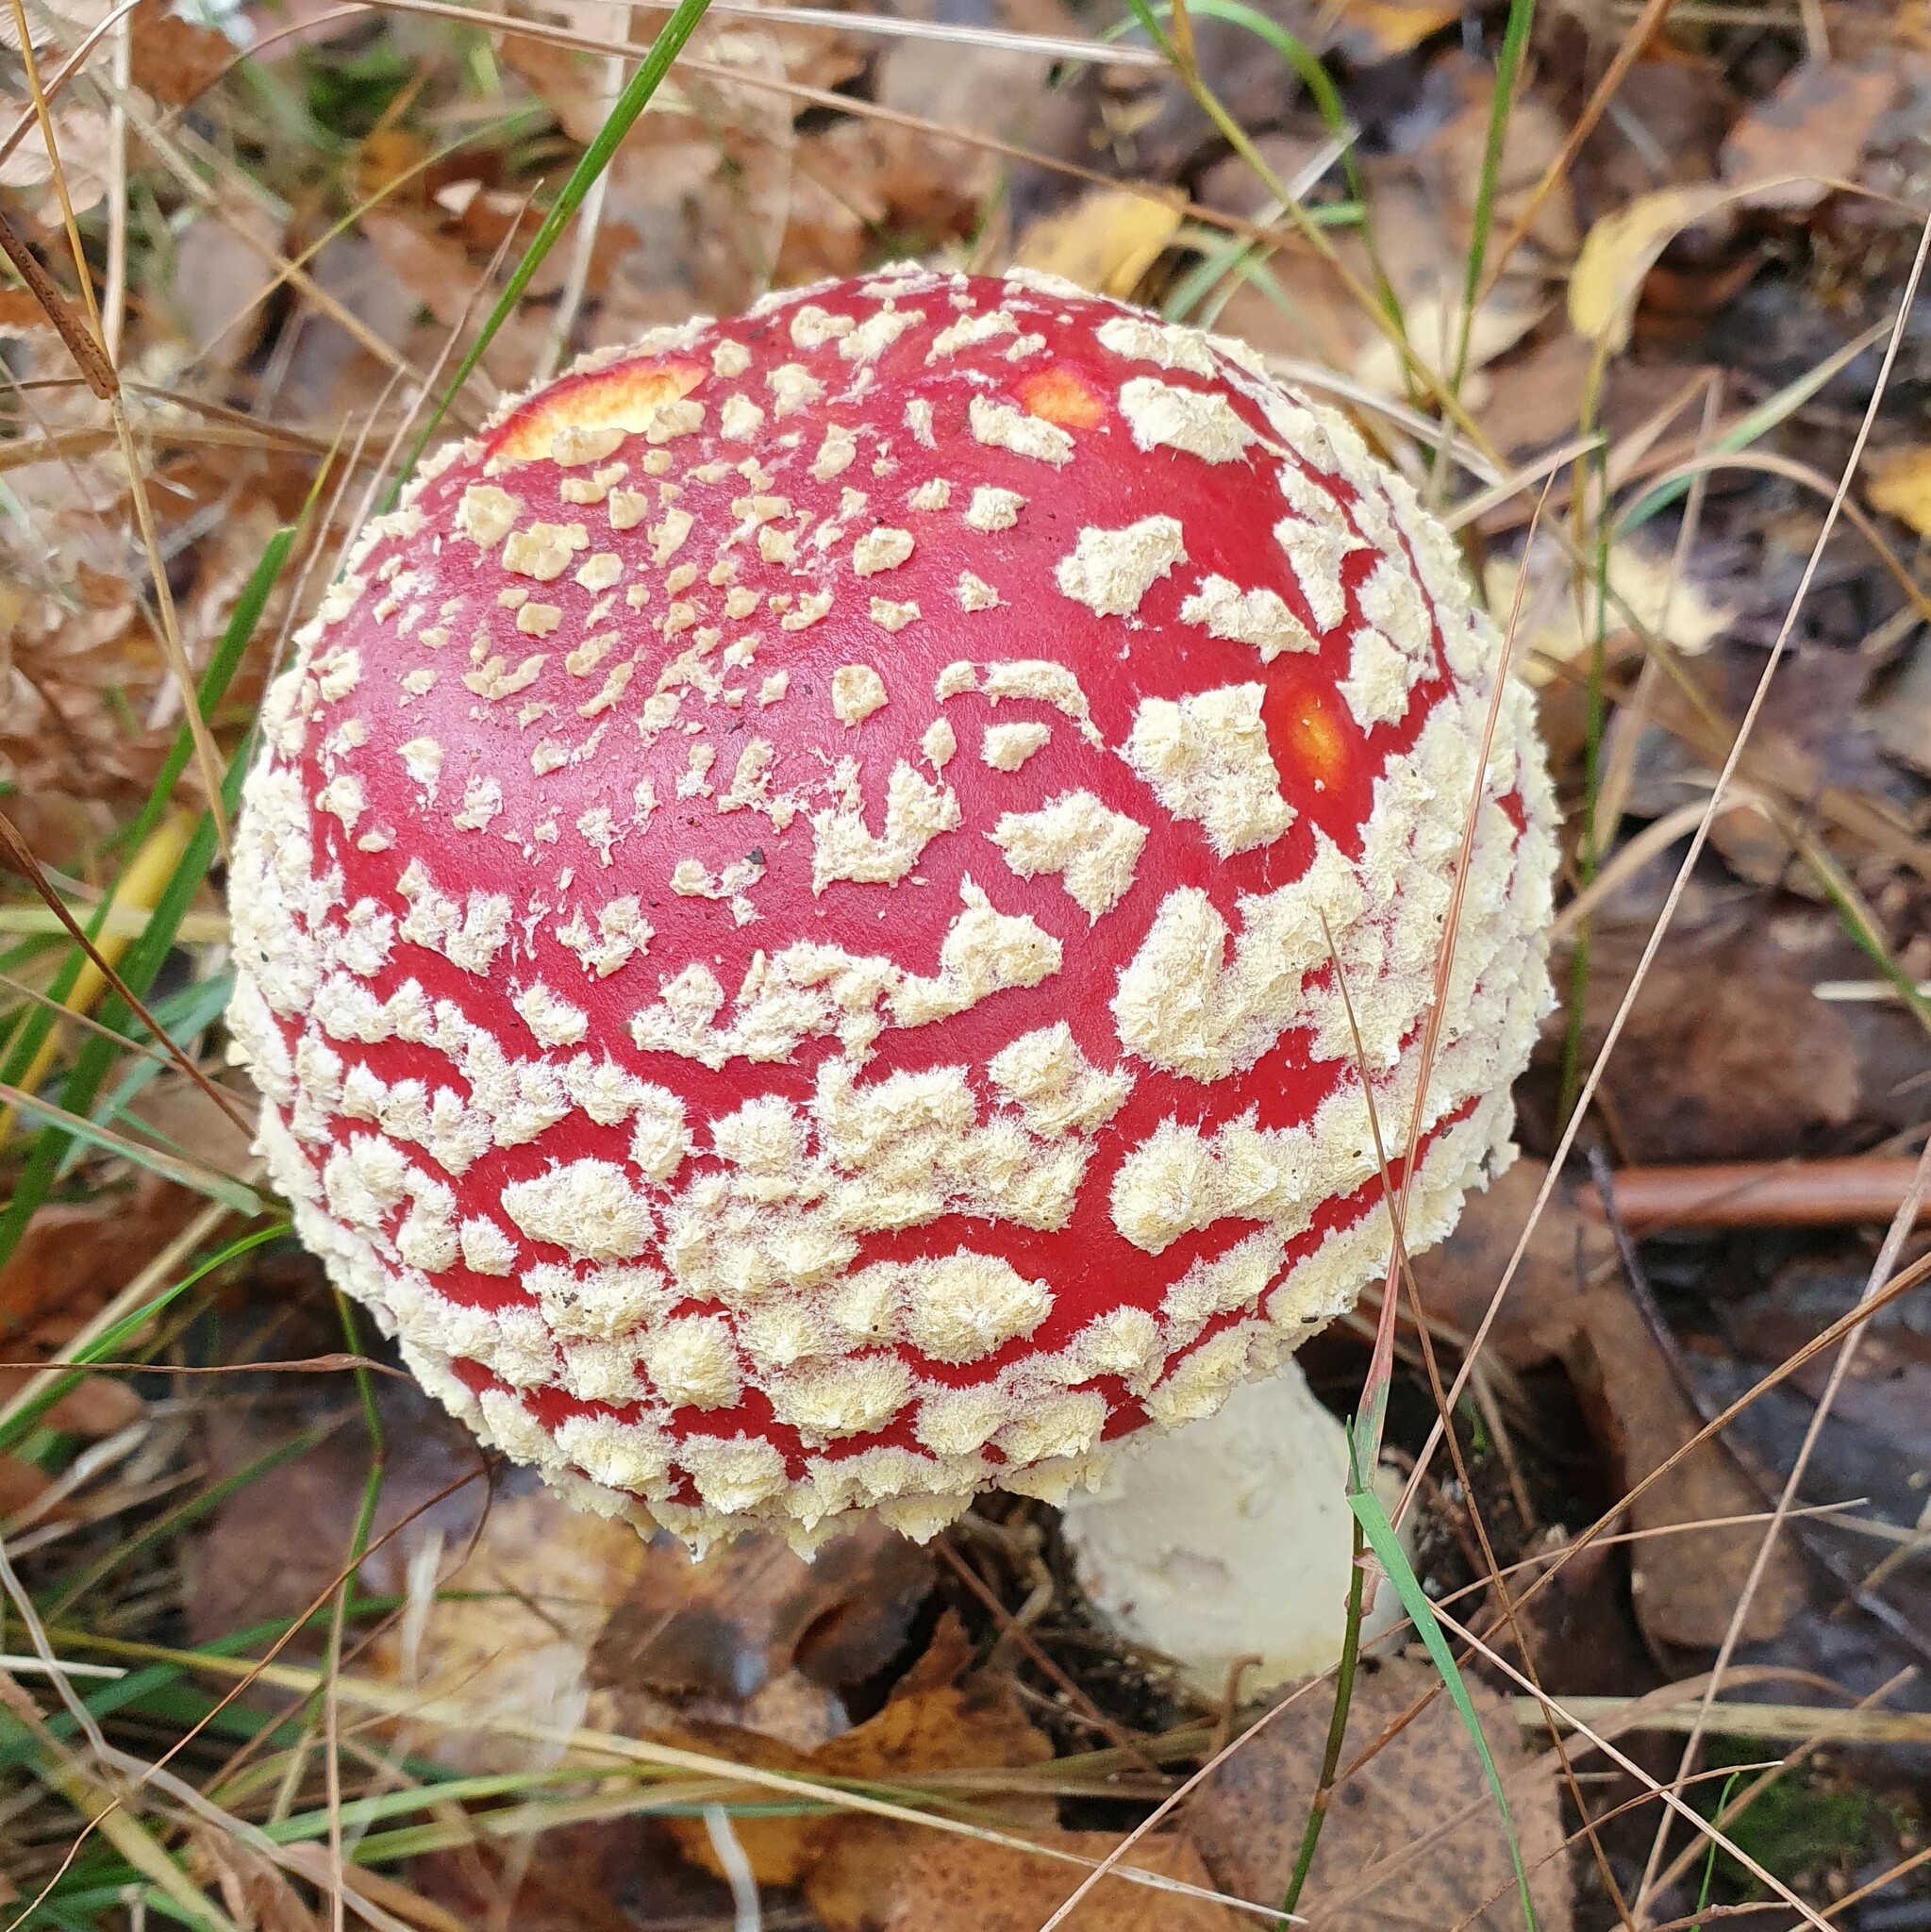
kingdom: Fungi
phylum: Basidiomycota
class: Agaricomycetes
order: Agaricales
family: Amanitaceae
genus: Amanita
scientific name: Amanita muscaria
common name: Fly agaric
